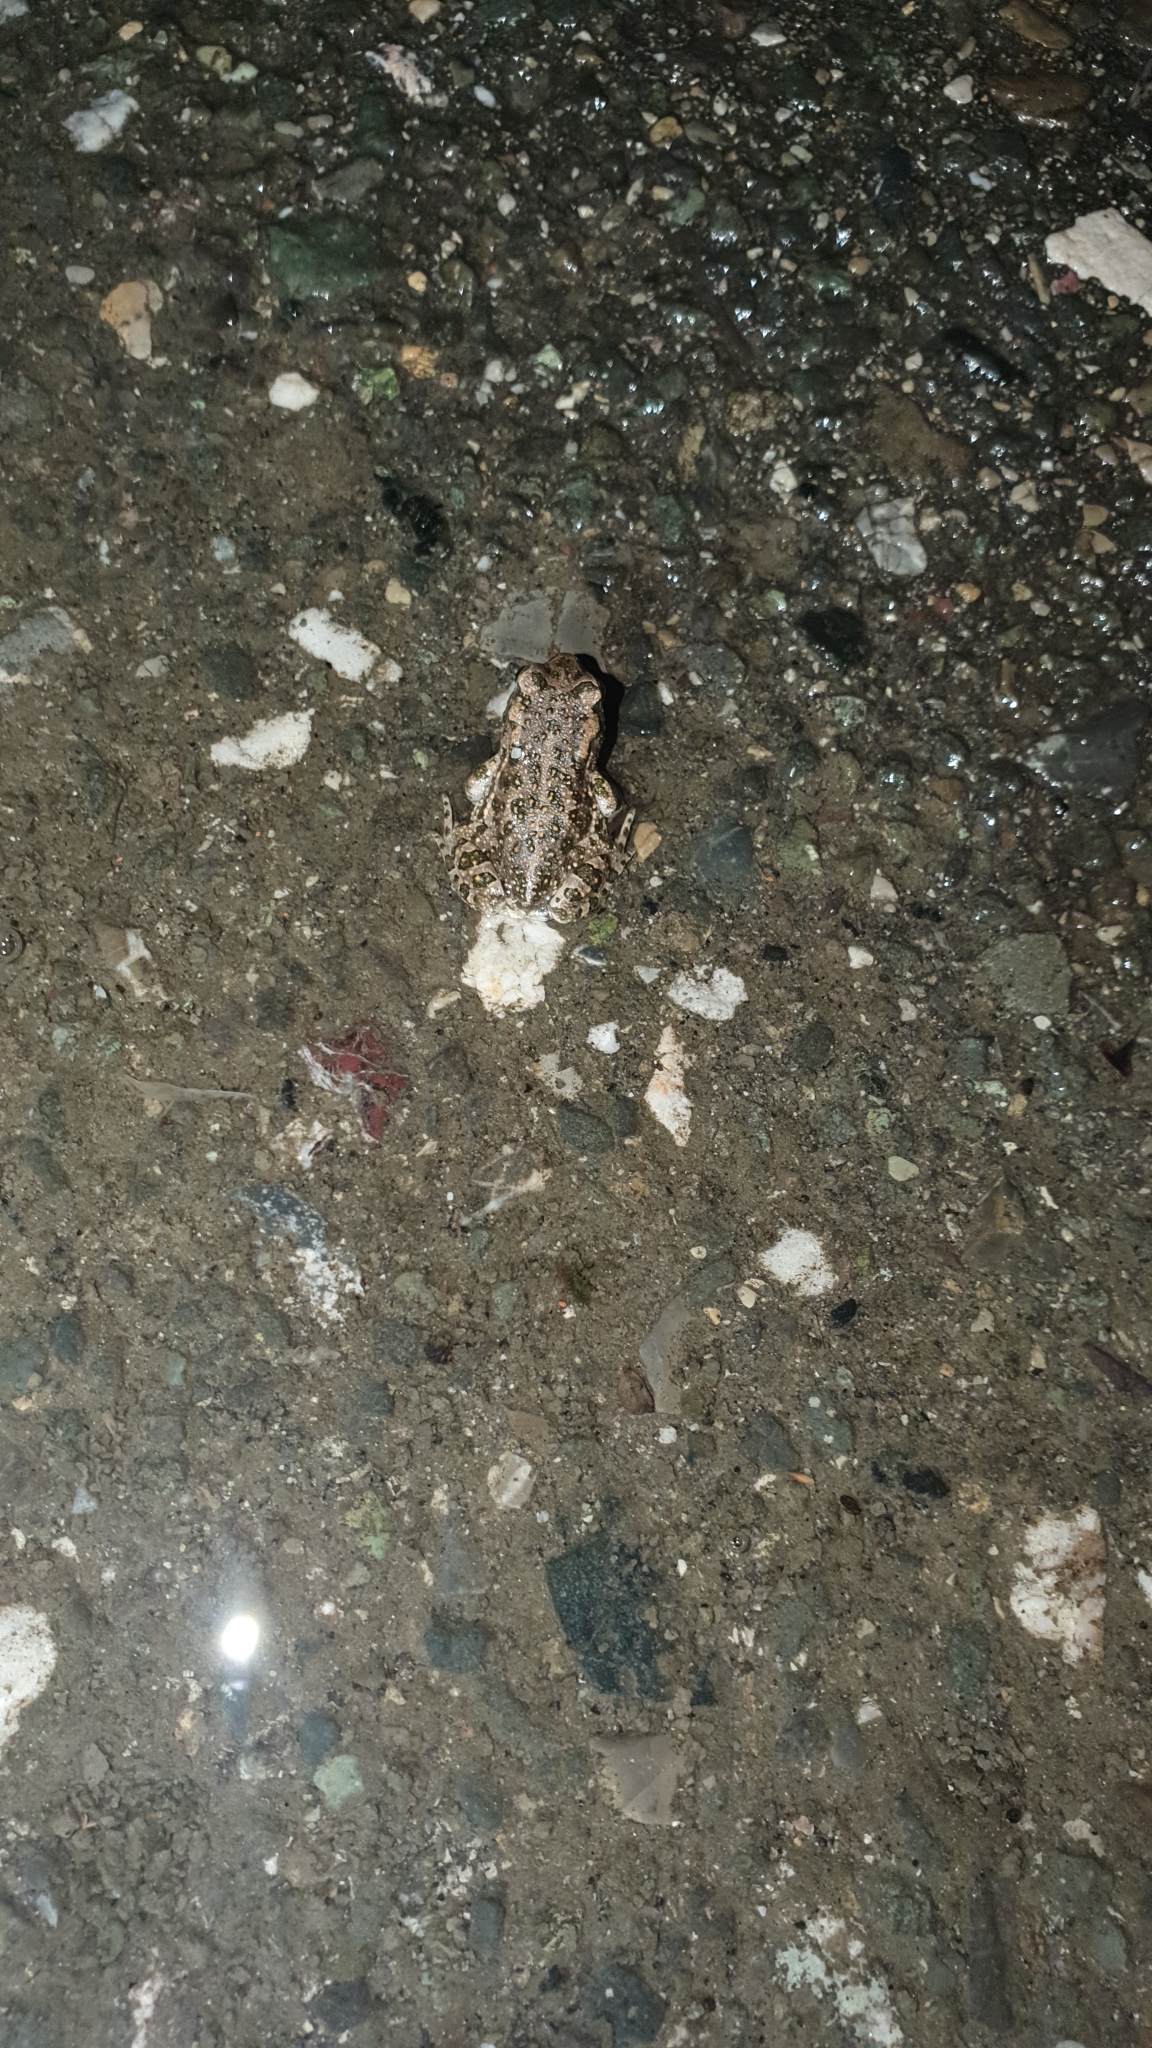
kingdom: Animalia
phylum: Chordata
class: Amphibia
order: Anura
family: Bufonidae
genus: Bufotes
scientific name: Bufotes viridis
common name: European green toad
